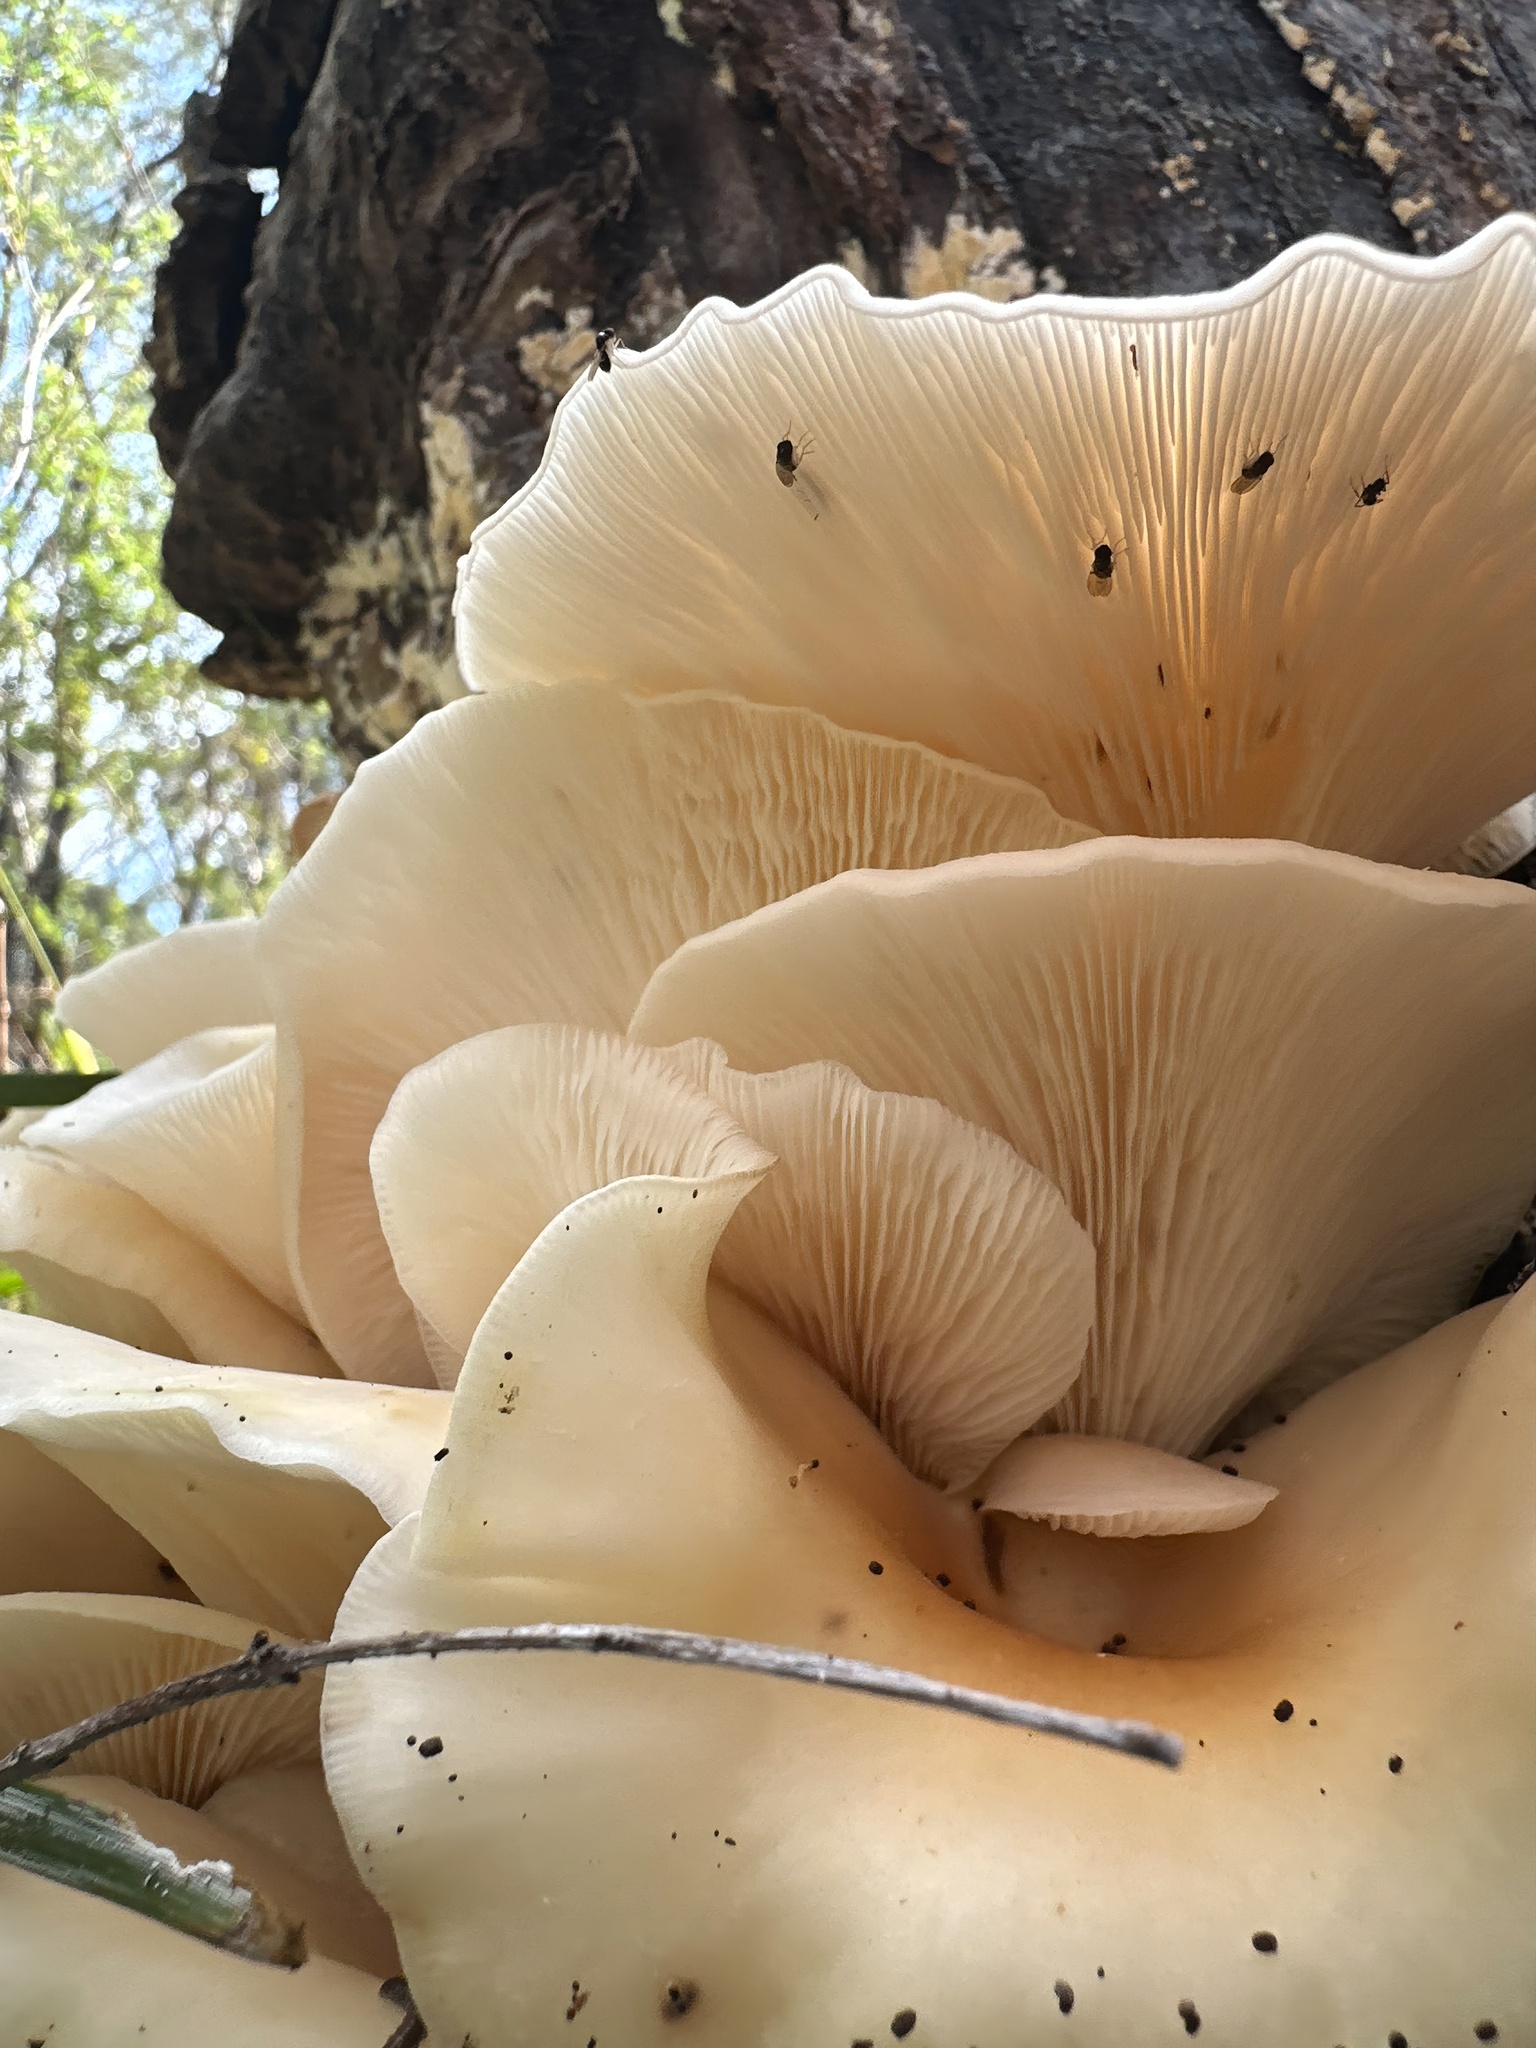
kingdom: Fungi
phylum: Basidiomycota
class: Agaricomycetes
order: Agaricales
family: Omphalotaceae
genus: Omphalotus
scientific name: Omphalotus nidiformis
